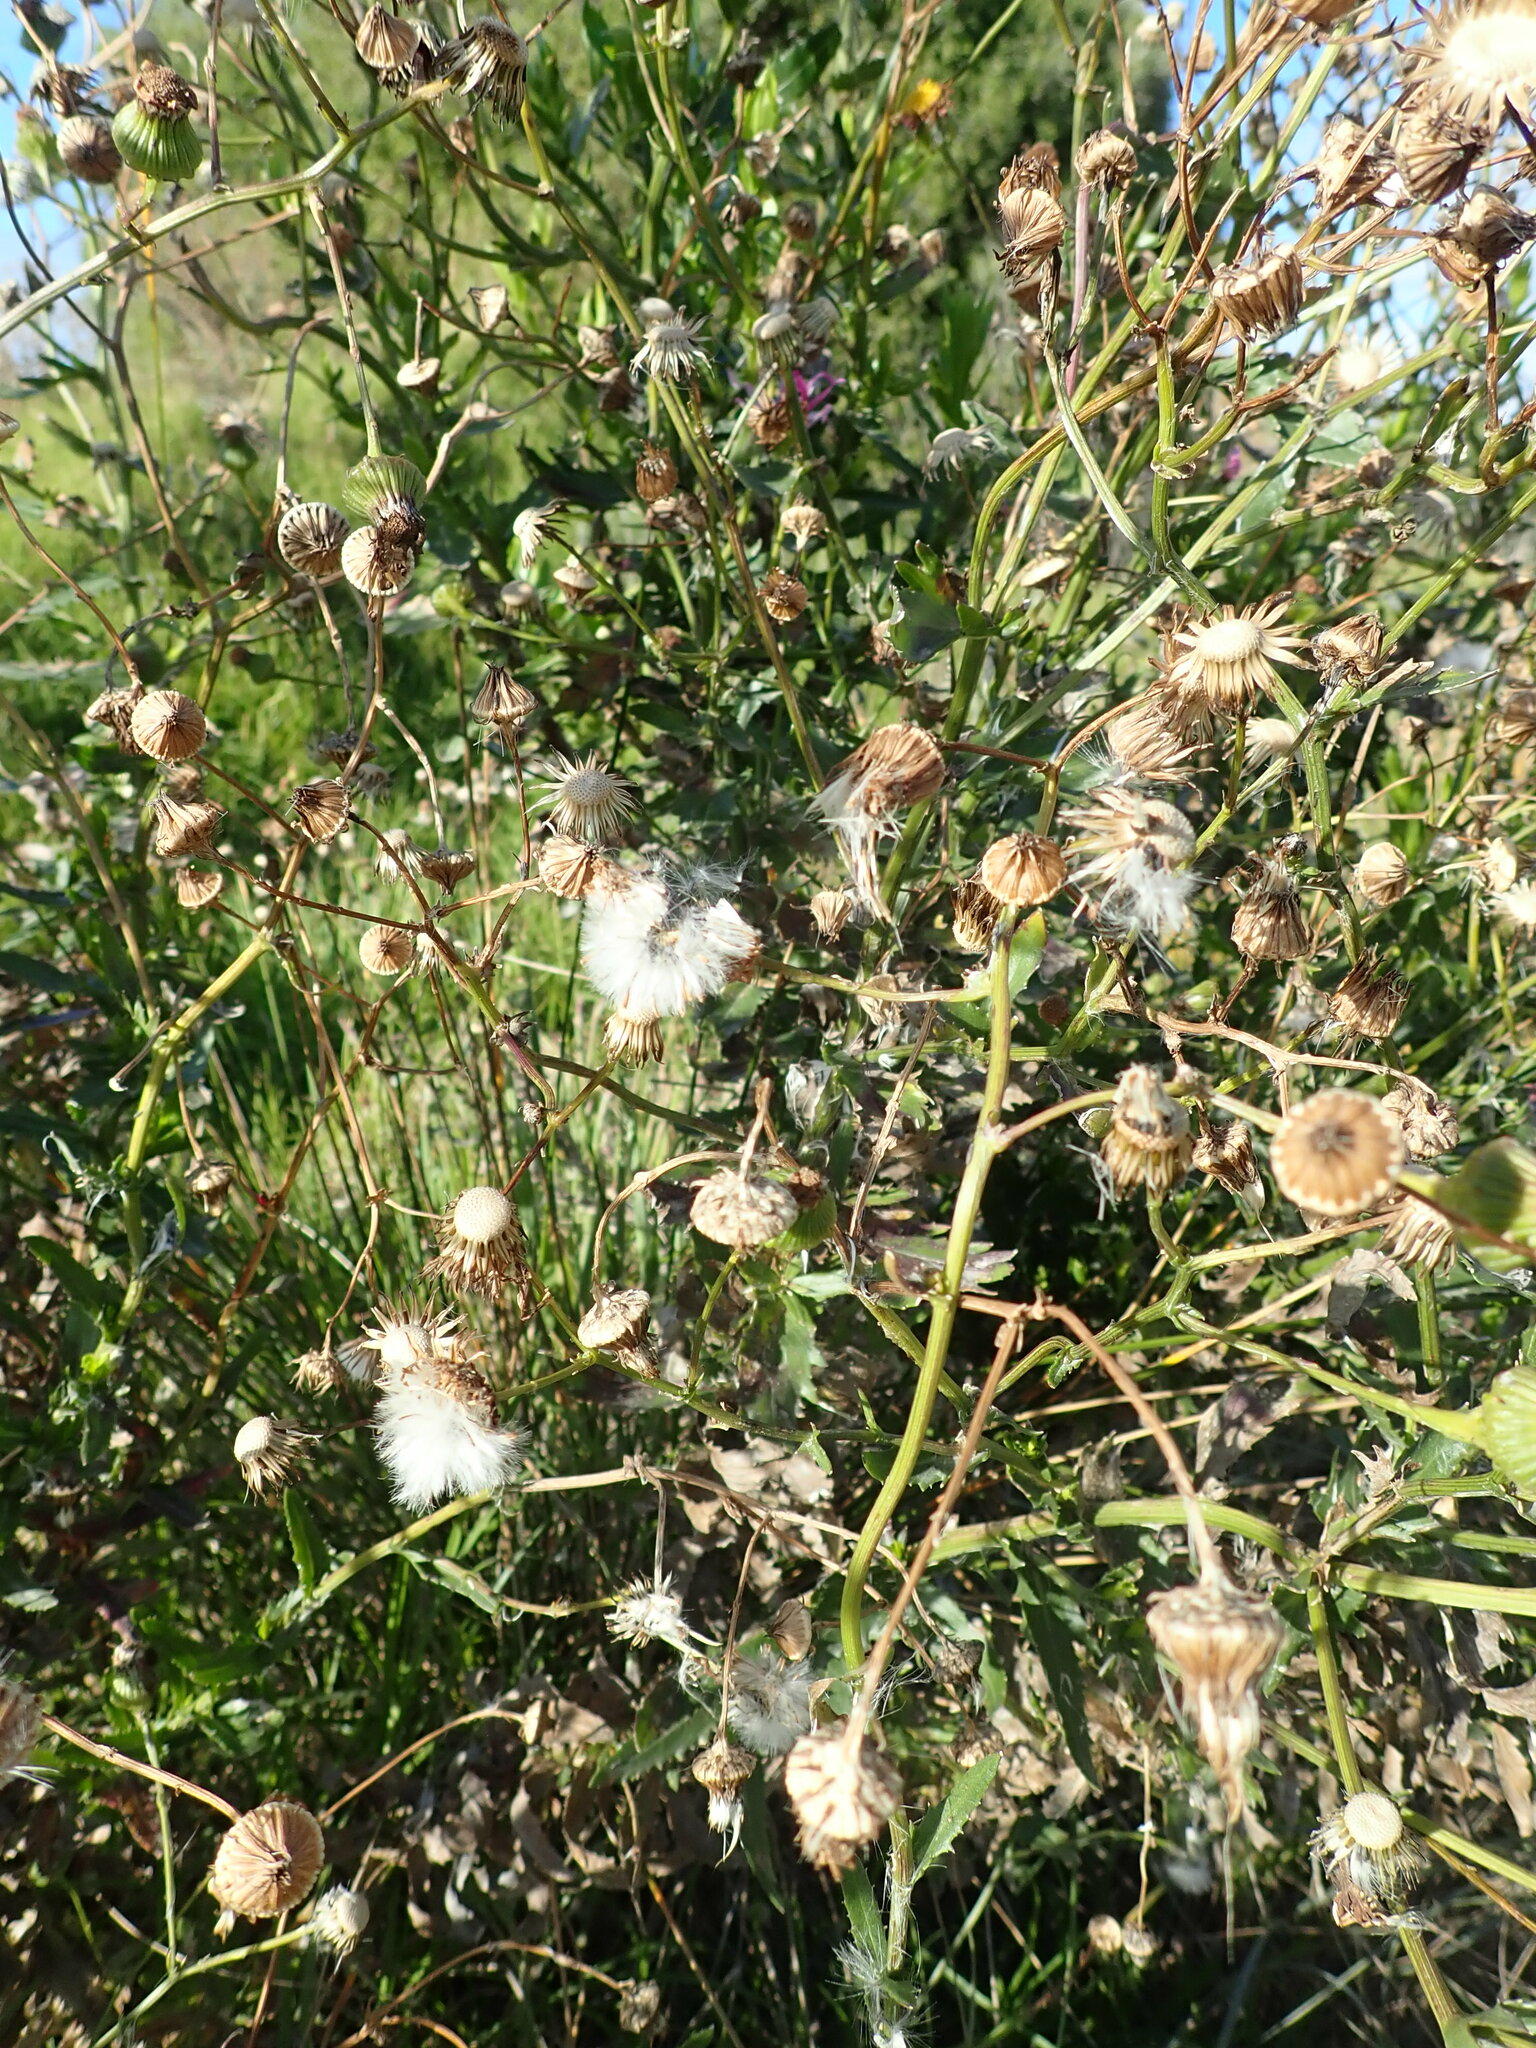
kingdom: Plantae
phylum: Tracheophyta
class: Magnoliopsida
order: Asterales
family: Asteraceae
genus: Senecio
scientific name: Senecio glastifolius
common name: Woad-leaved ragwort
